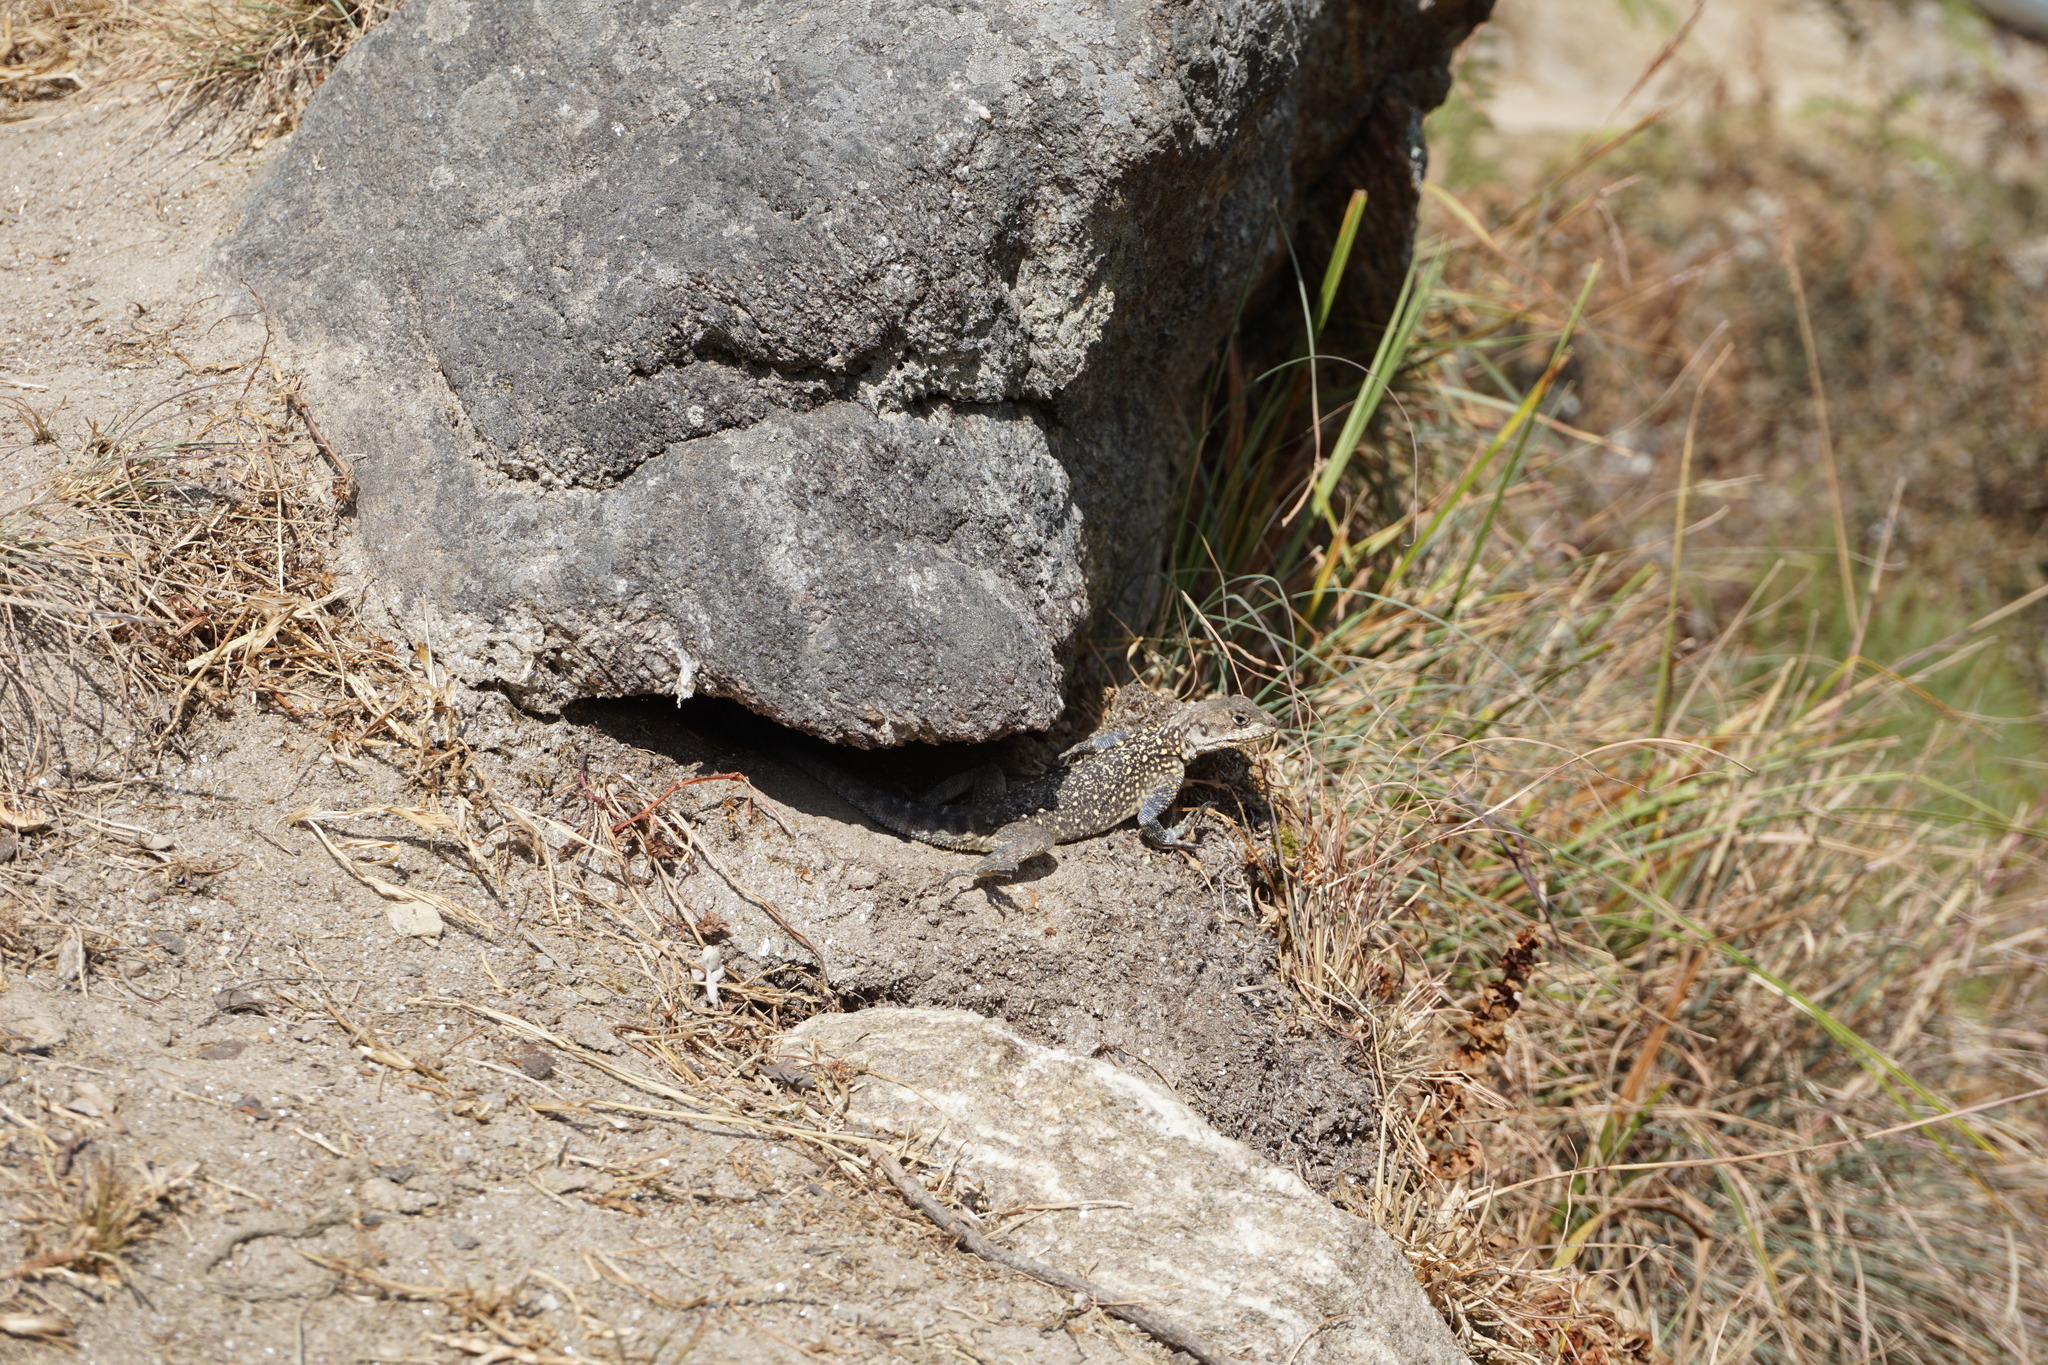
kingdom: Animalia
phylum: Chordata
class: Squamata
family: Agamidae
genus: Laudakia
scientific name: Laudakia tuberculata
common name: Kashmir rock agama
